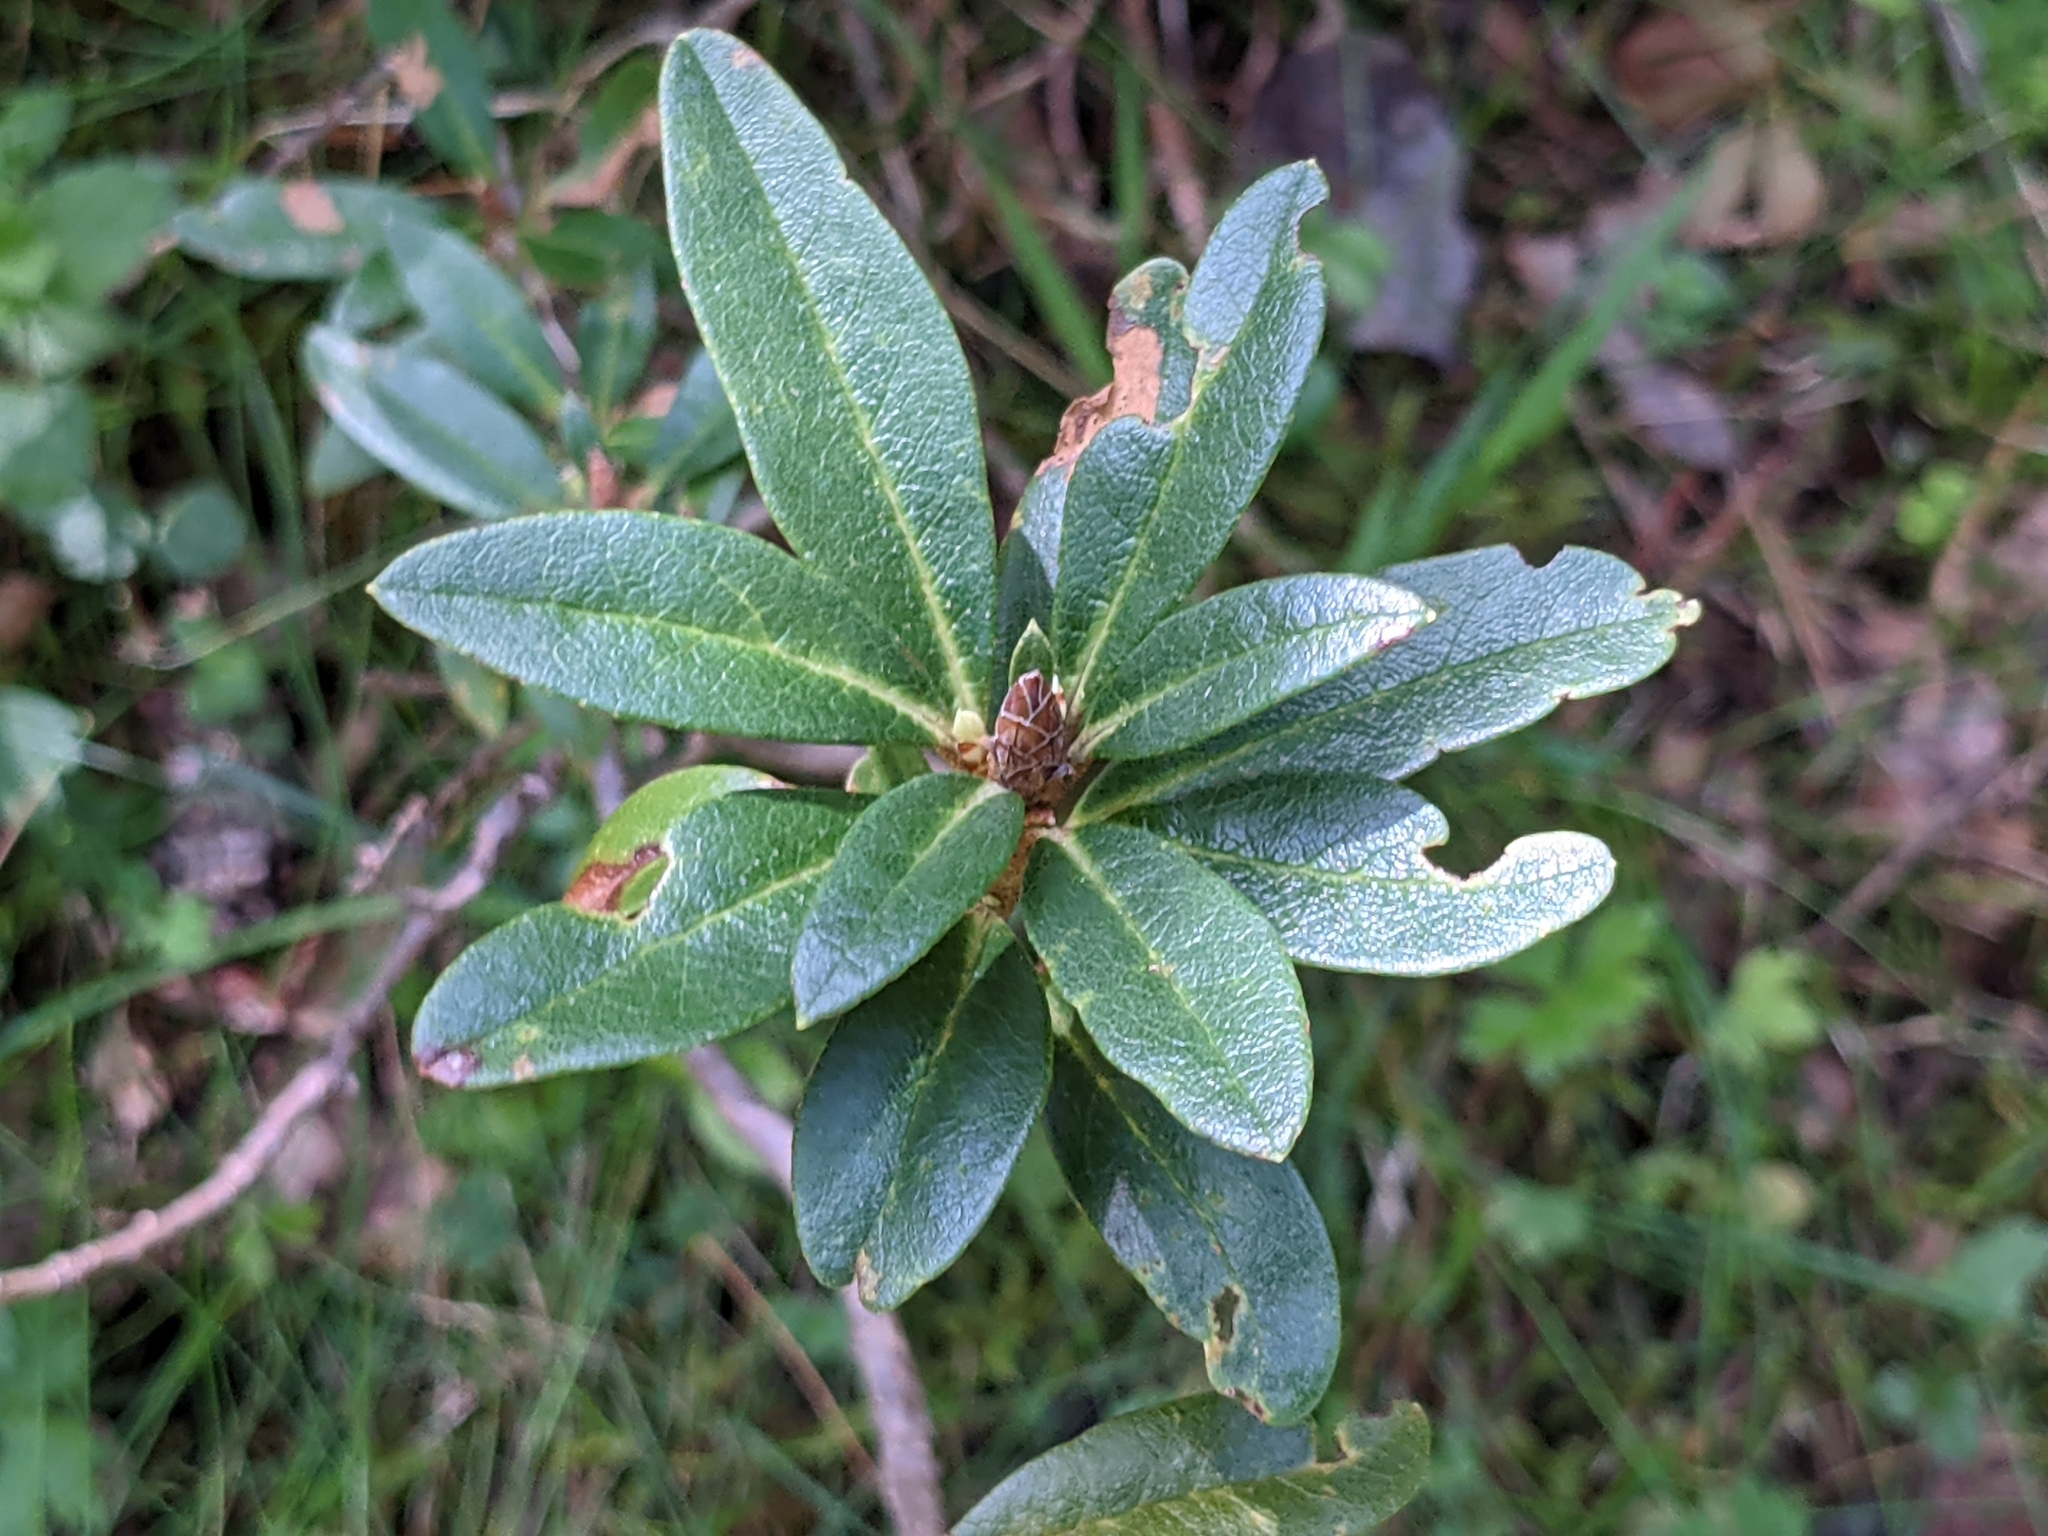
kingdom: Plantae
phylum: Tracheophyta
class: Magnoliopsida
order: Ericales
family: Ericaceae
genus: Rhododendron
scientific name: Rhododendron ferrugineum
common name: Alpenrose
